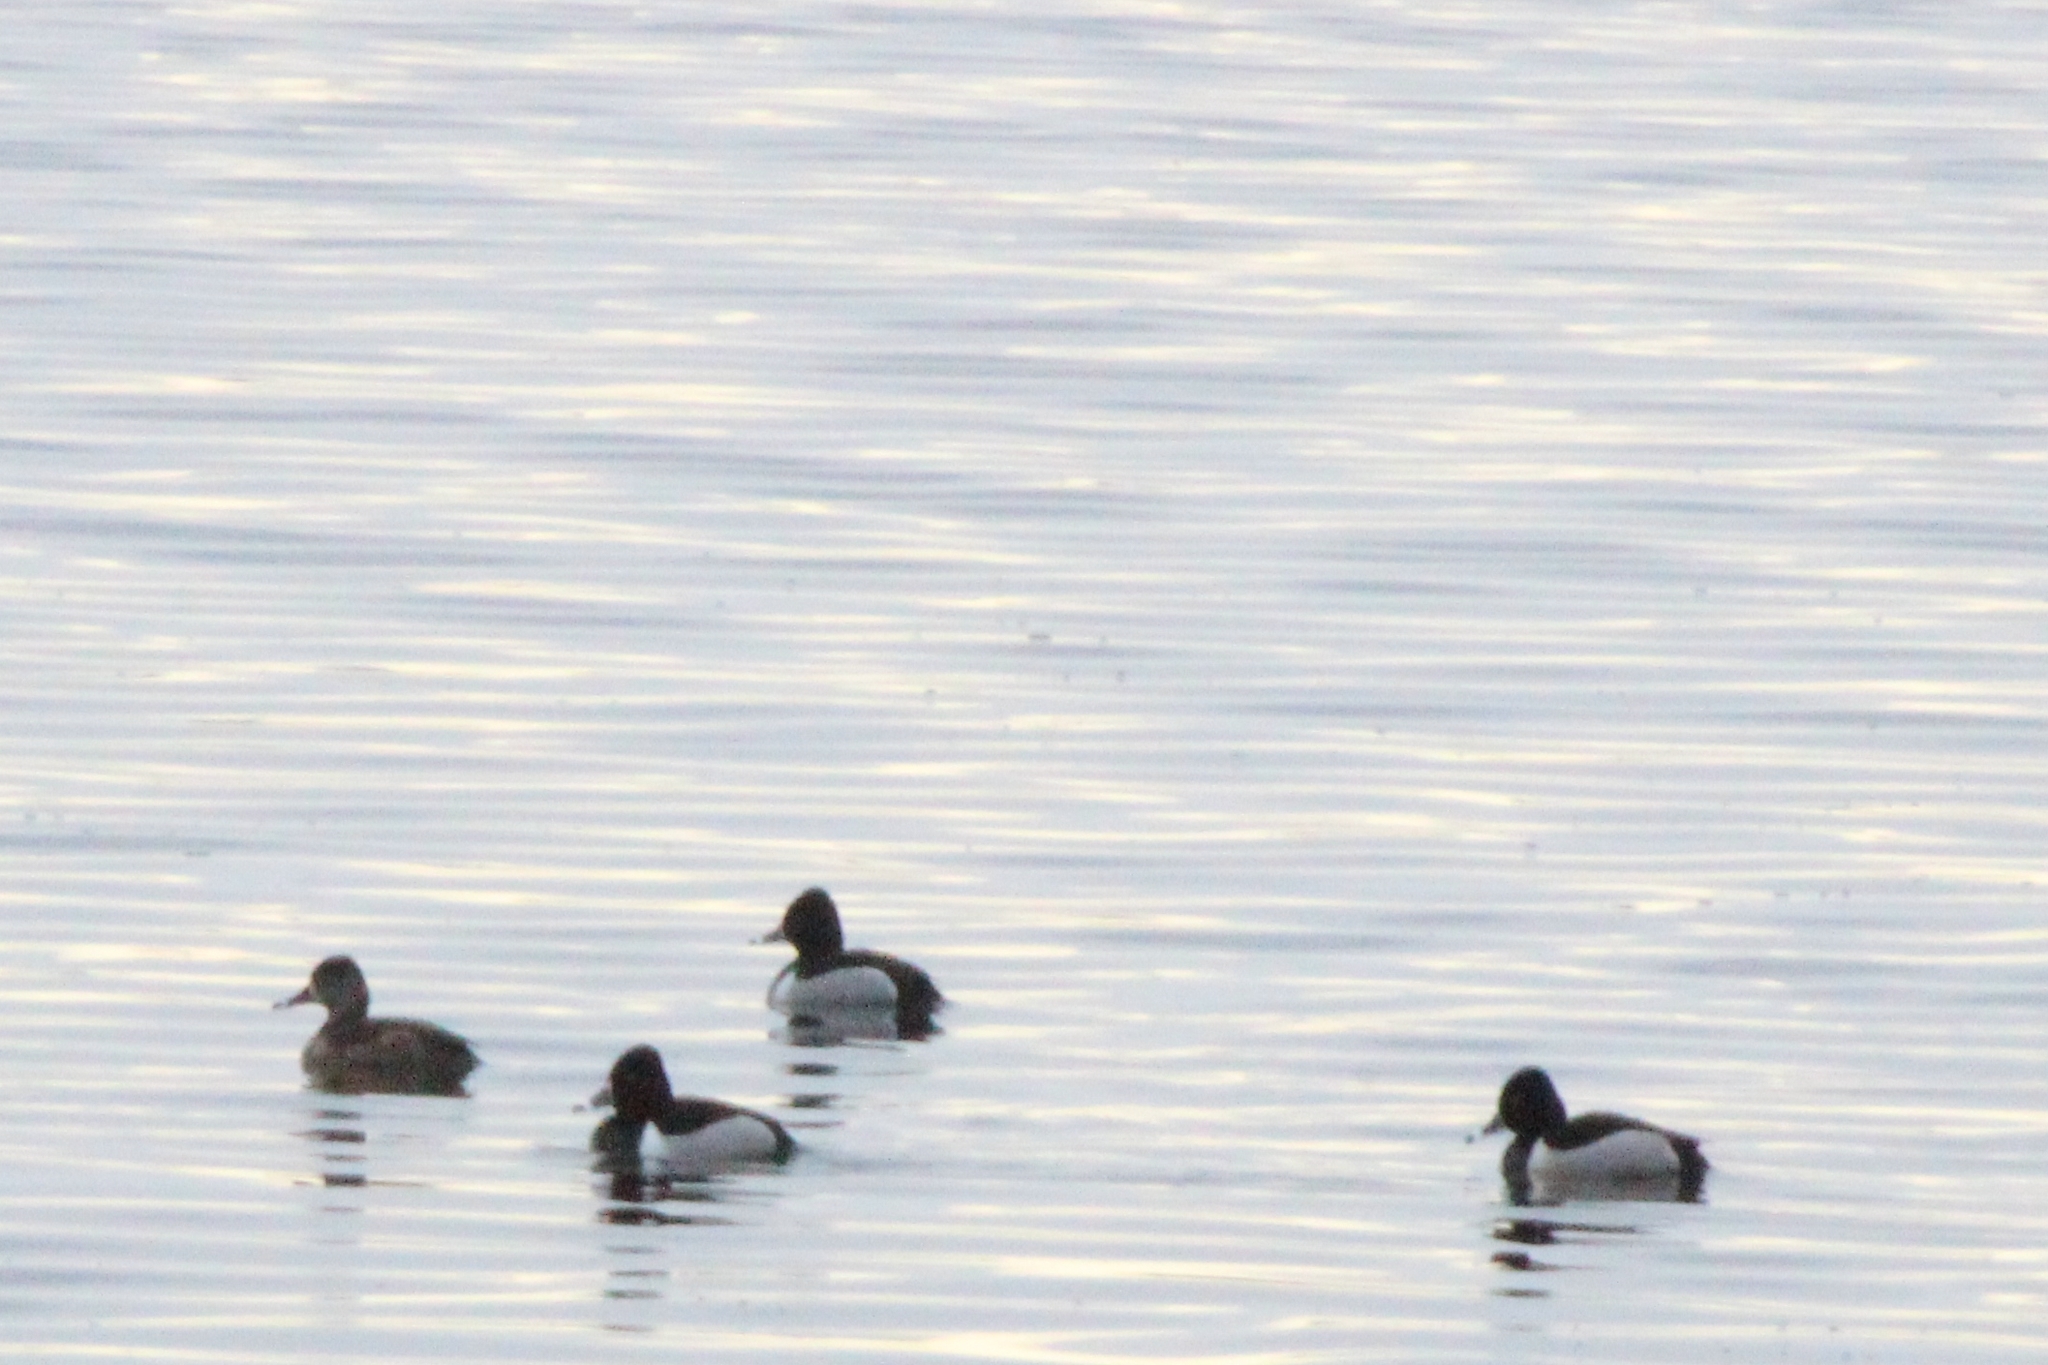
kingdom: Animalia
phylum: Chordata
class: Aves
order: Anseriformes
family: Anatidae
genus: Aythya
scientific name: Aythya collaris
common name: Ring-necked duck
